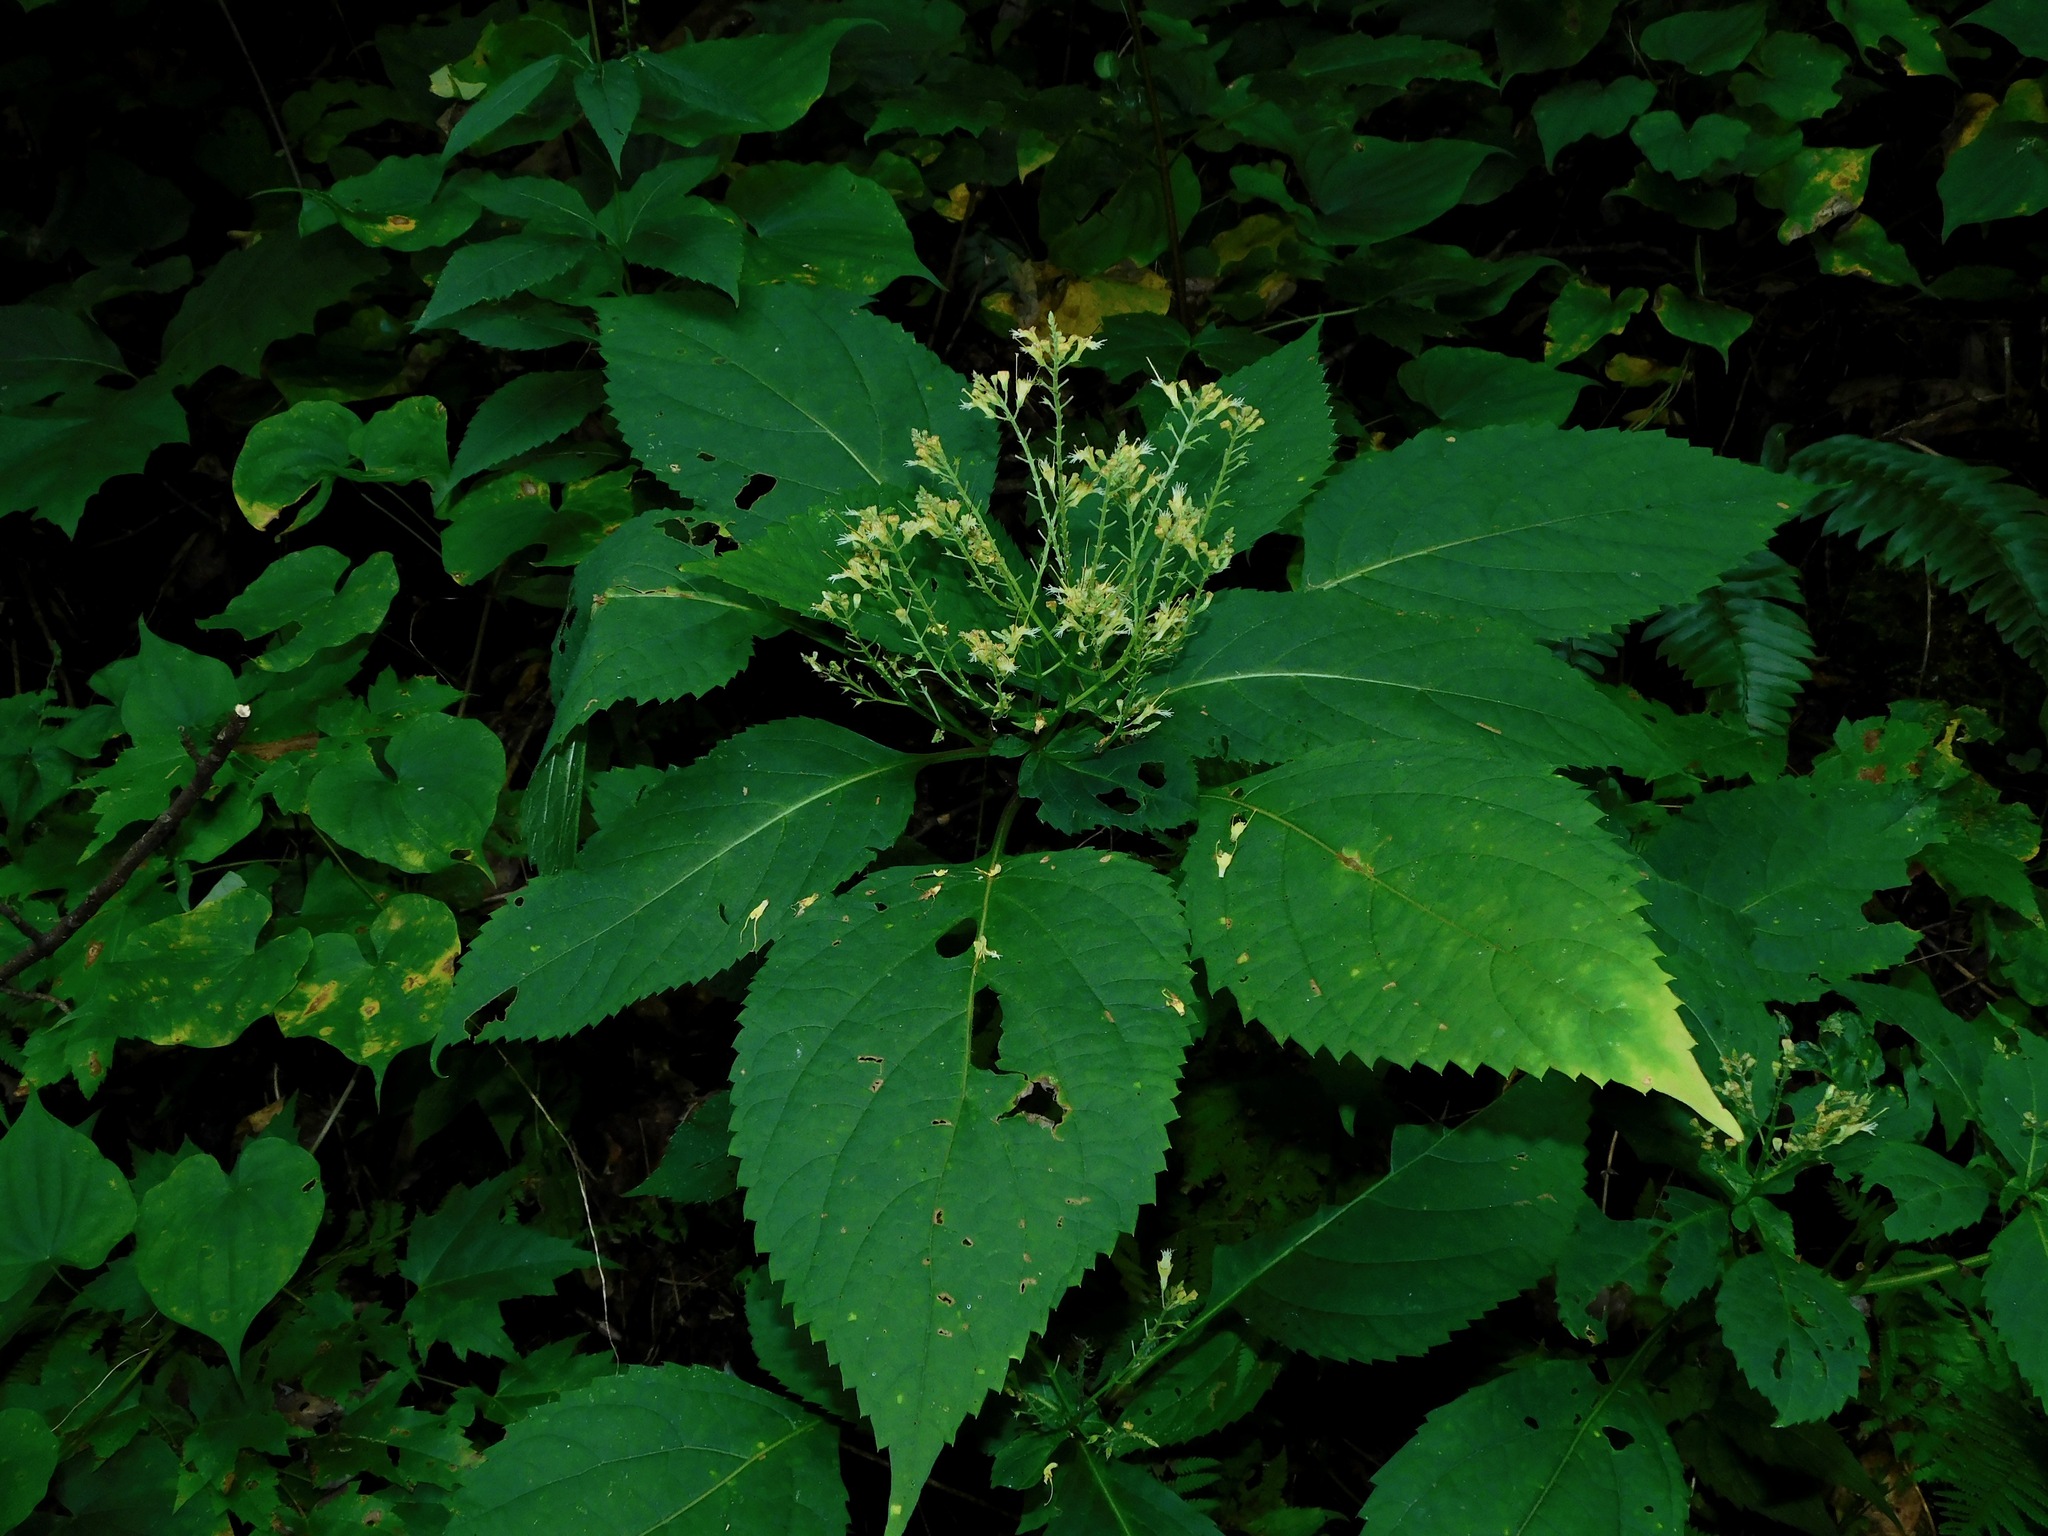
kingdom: Plantae
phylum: Tracheophyta
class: Magnoliopsida
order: Lamiales
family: Lamiaceae
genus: Collinsonia
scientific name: Collinsonia canadensis
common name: Northern horsebalm
